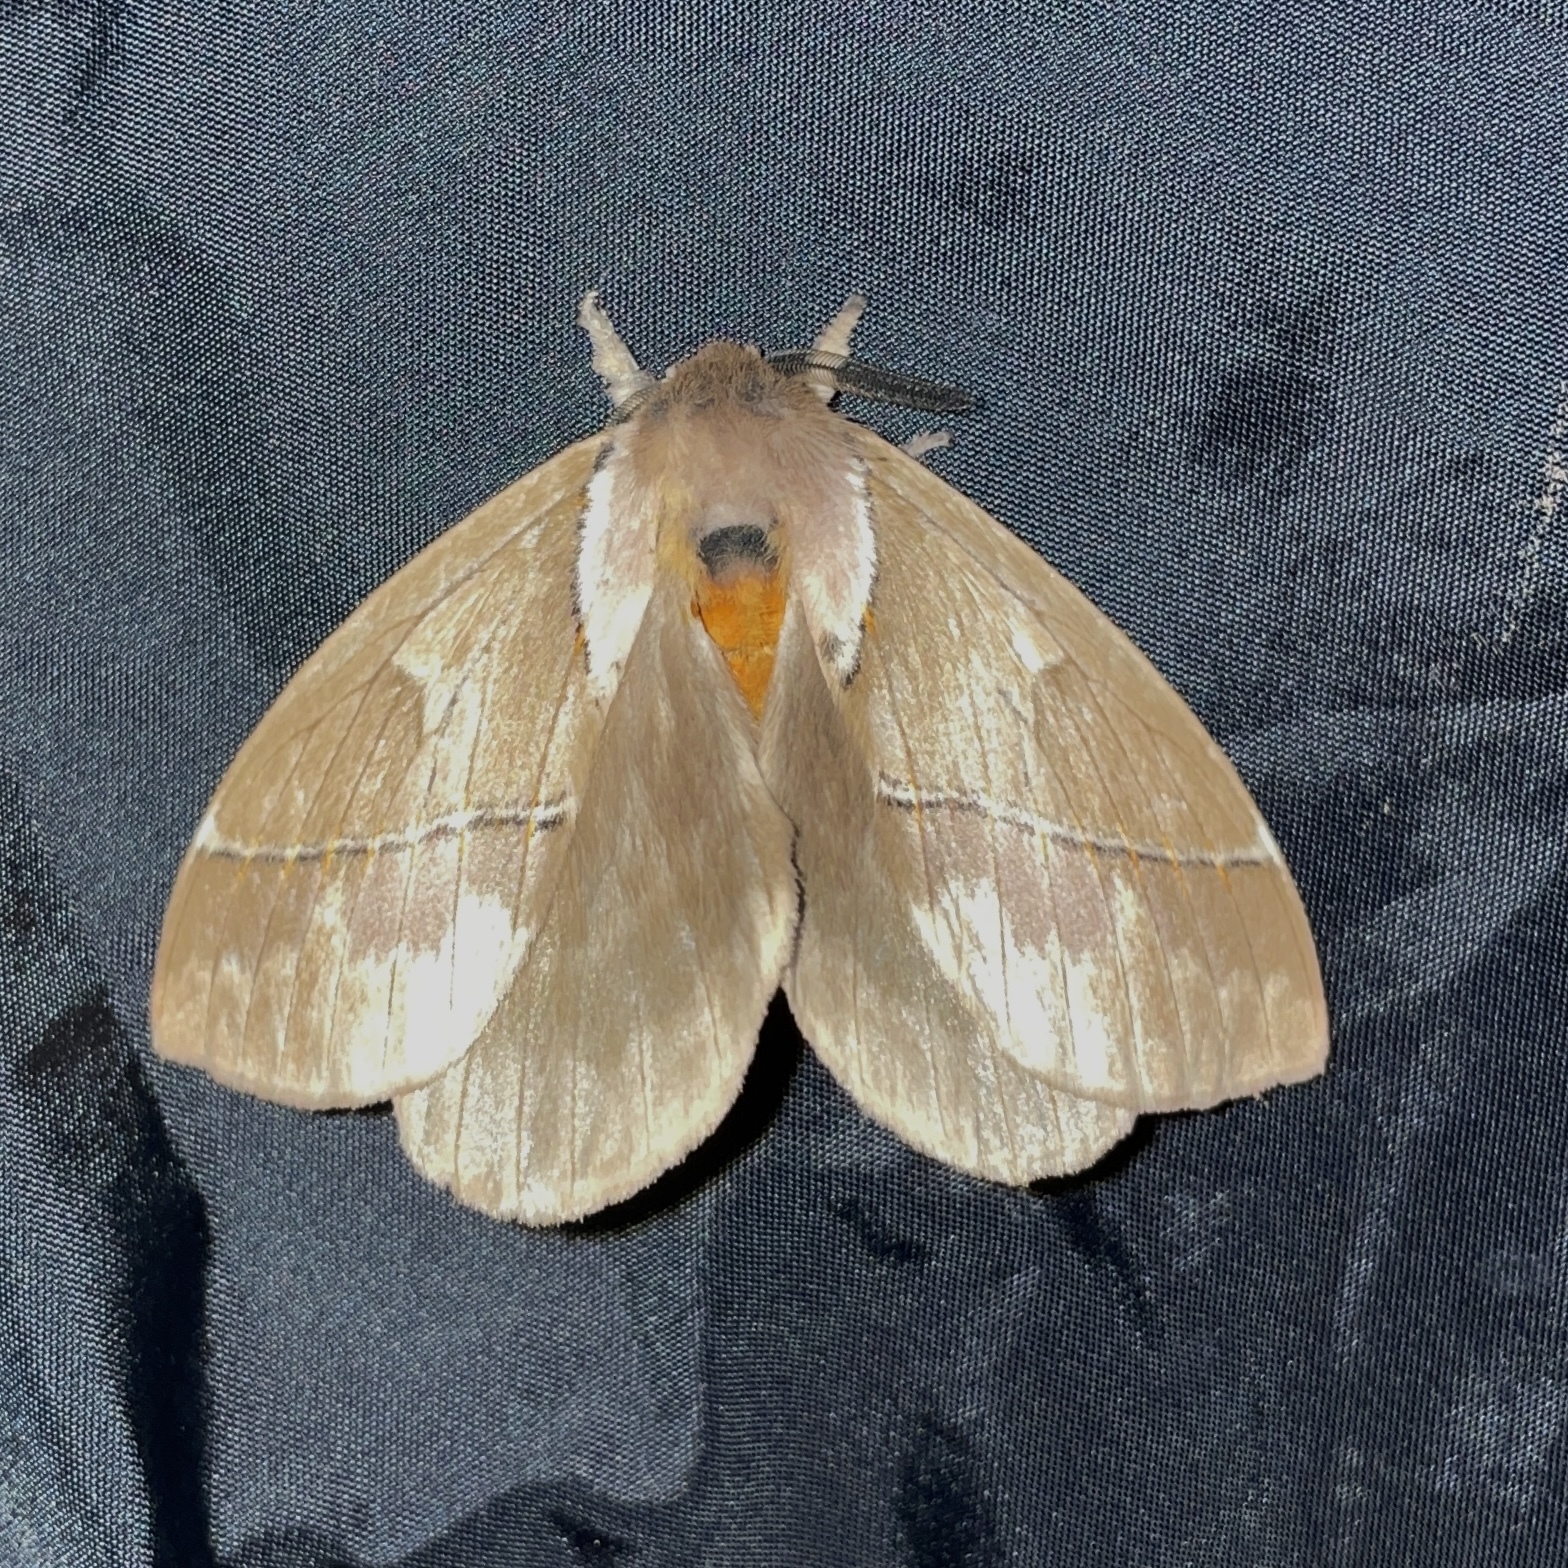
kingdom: Animalia
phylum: Arthropoda
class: Insecta
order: Lepidoptera
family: Saturniidae
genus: Pseudodirphia
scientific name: Pseudodirphia eumedide
